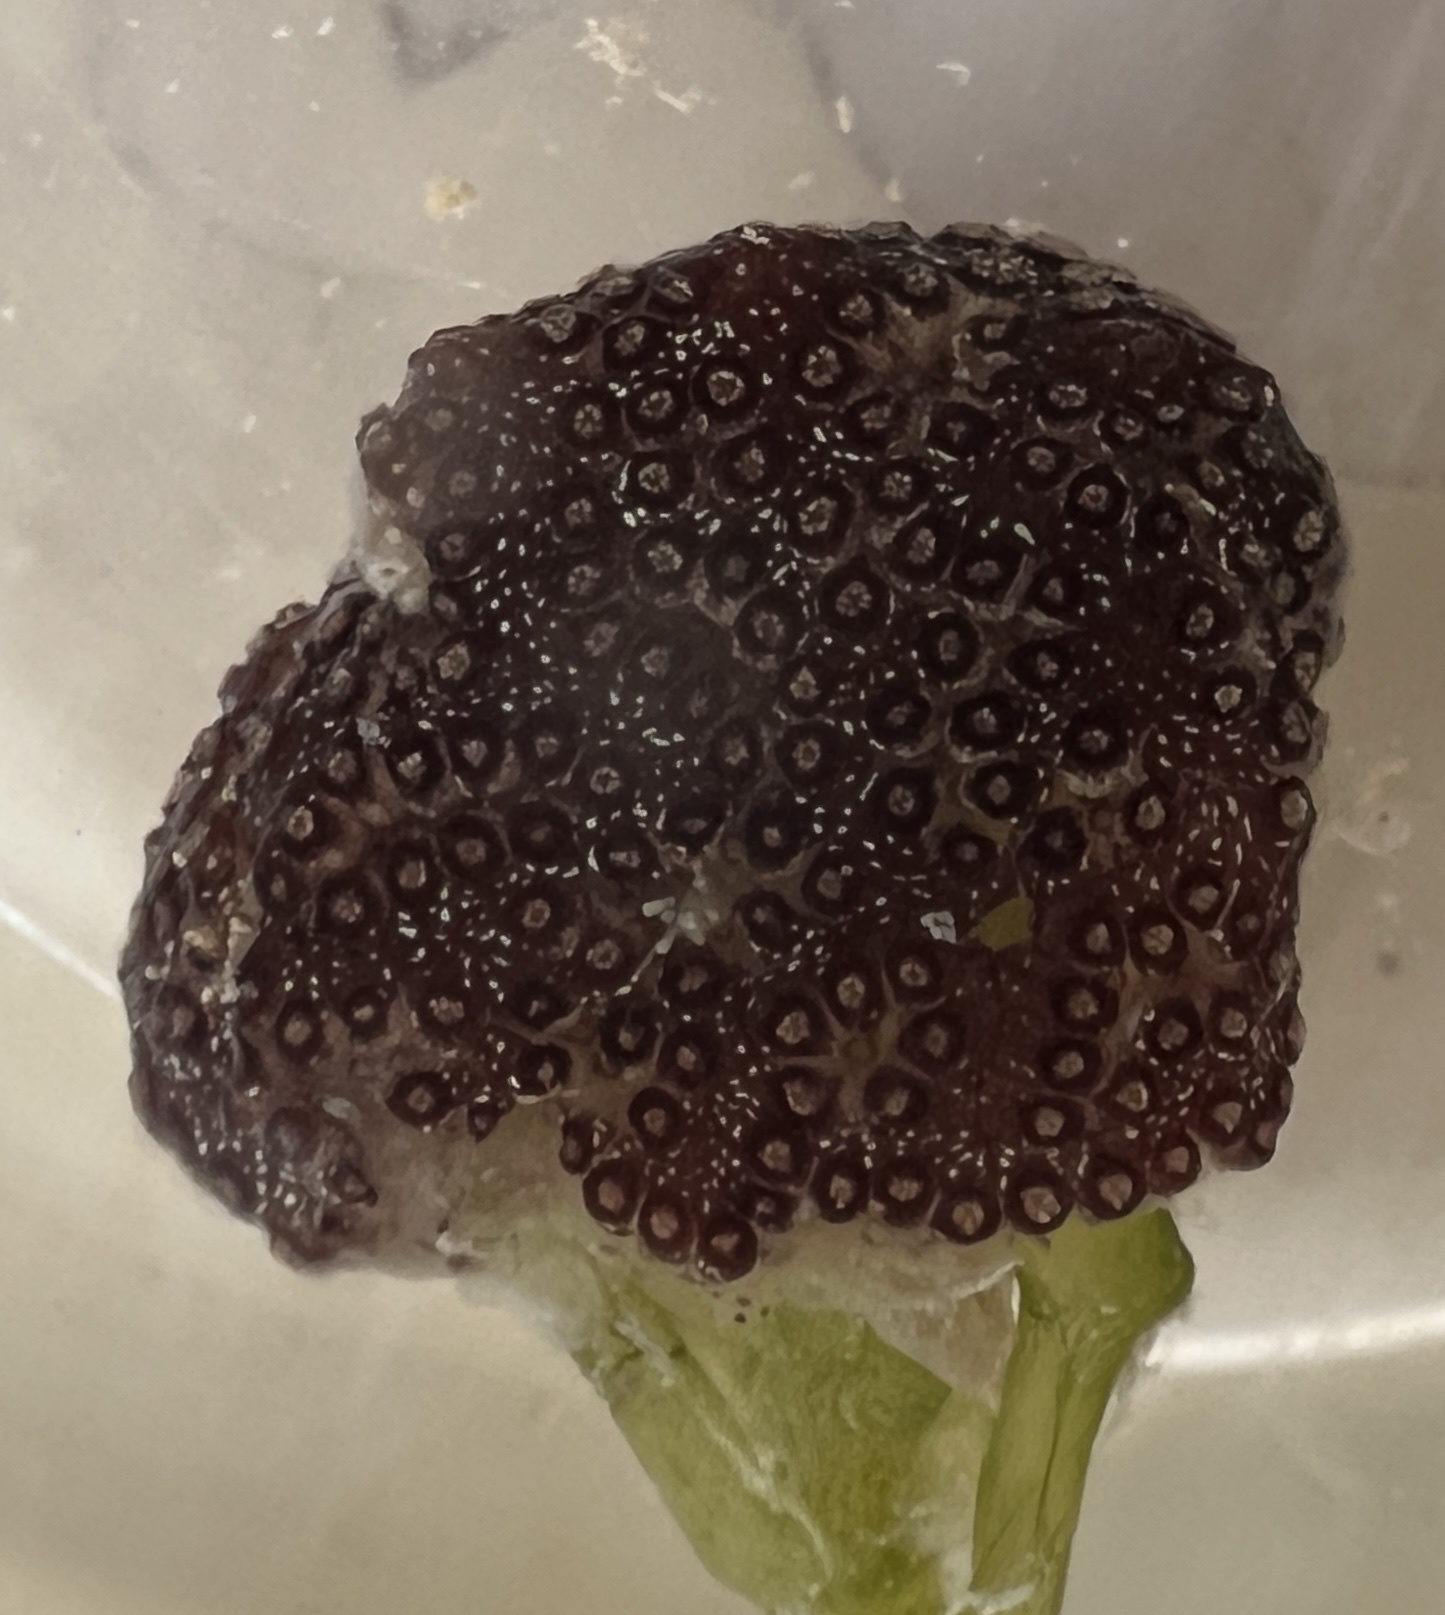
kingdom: Animalia
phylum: Chordata
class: Ascidiacea
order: Stolidobranchia
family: Styelidae
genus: Botryllus
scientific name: Botryllus planus
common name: Flat tunicate
